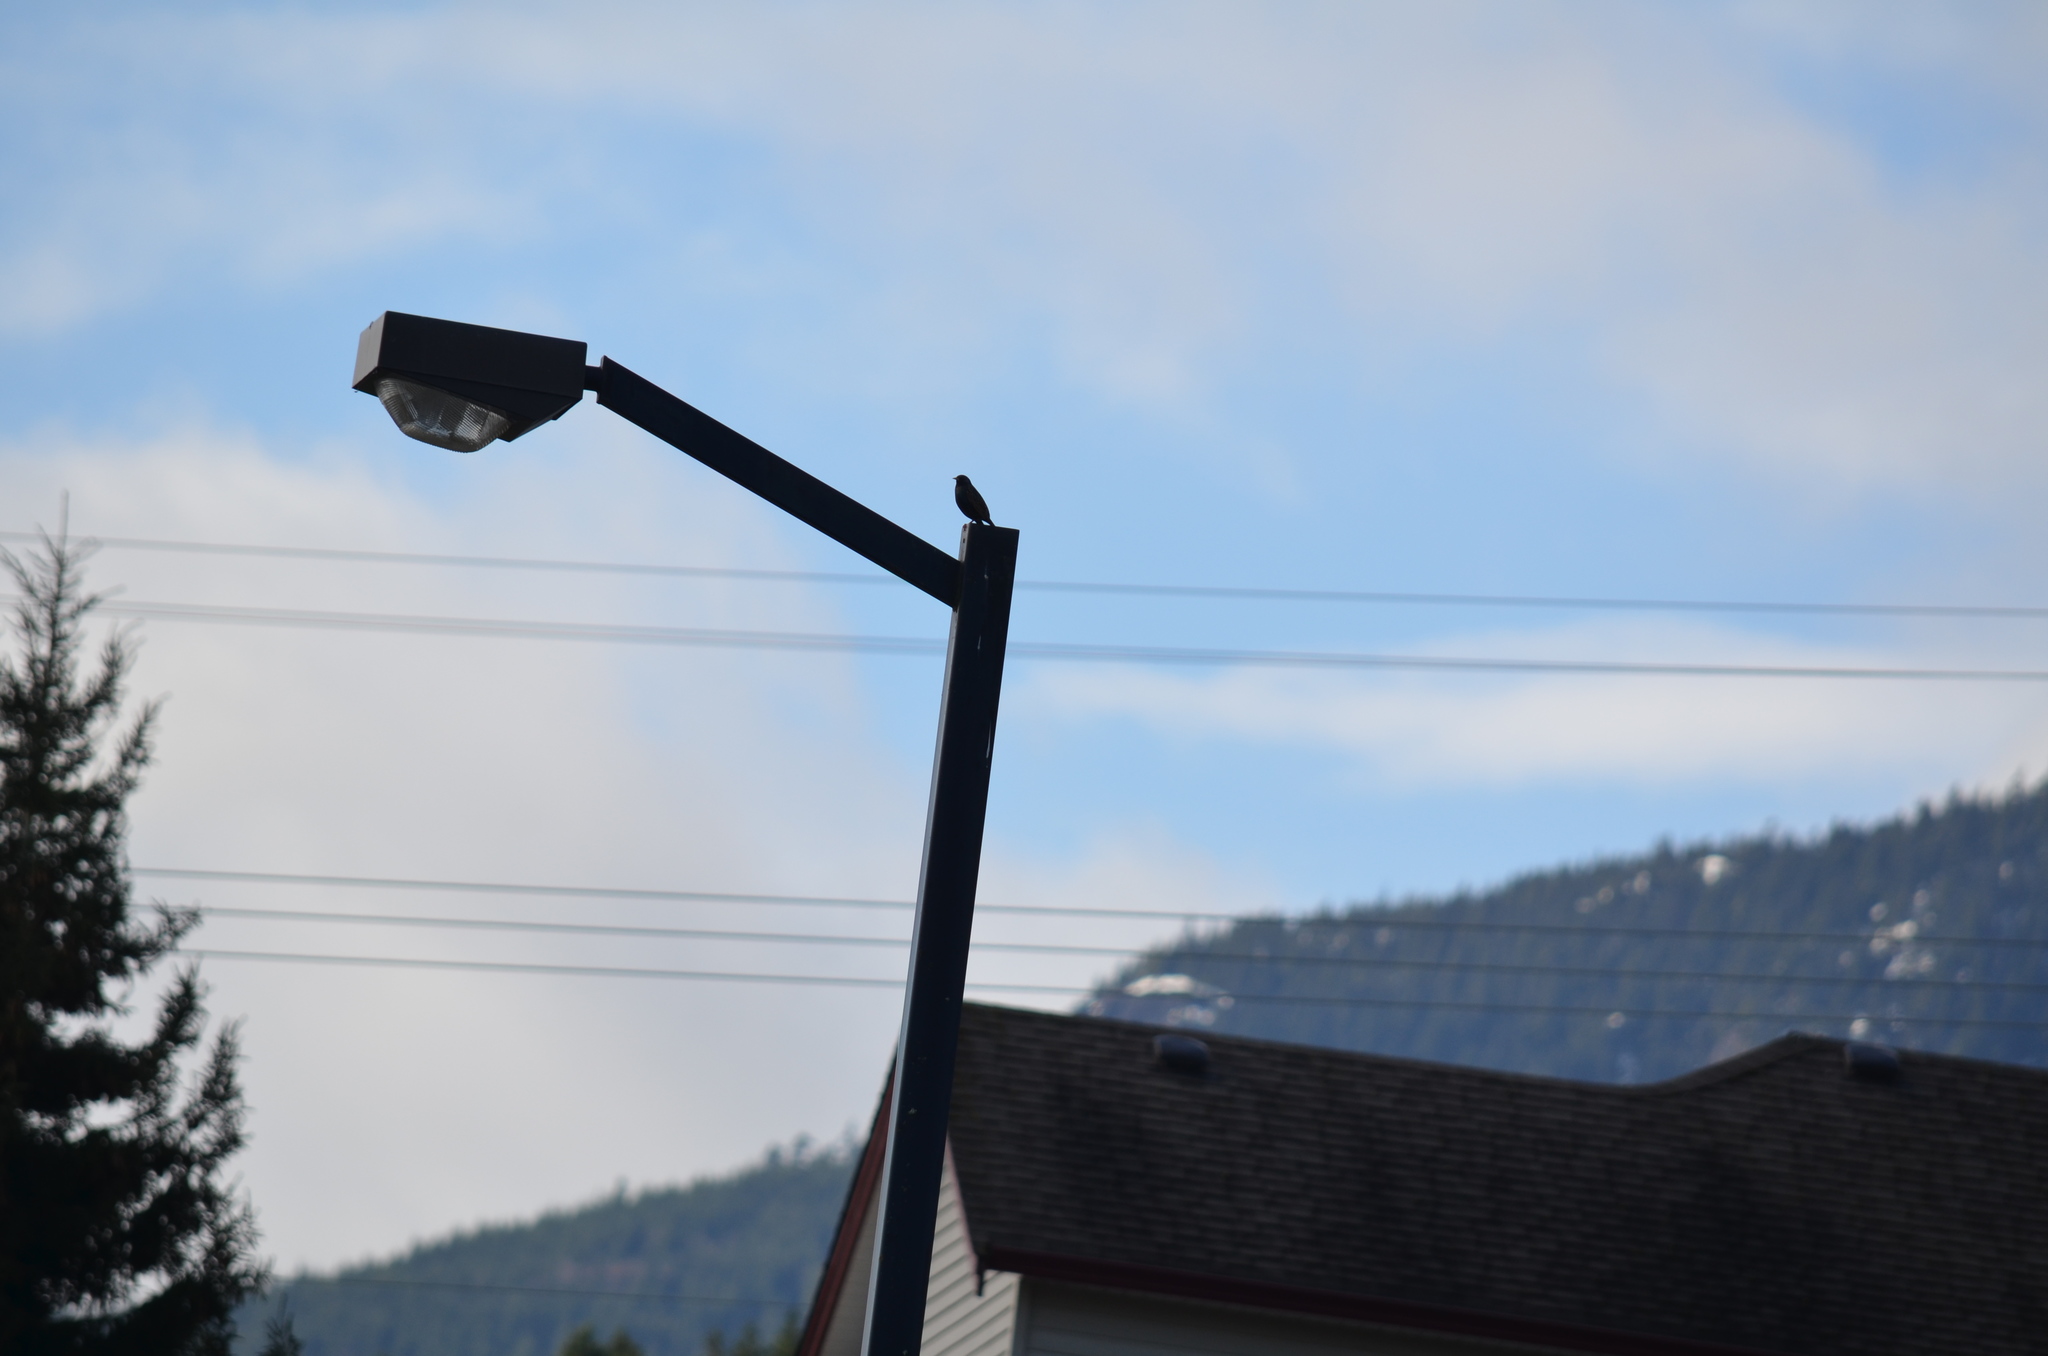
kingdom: Animalia
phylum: Chordata
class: Aves
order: Passeriformes
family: Sturnidae
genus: Sturnus
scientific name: Sturnus vulgaris
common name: Common starling
